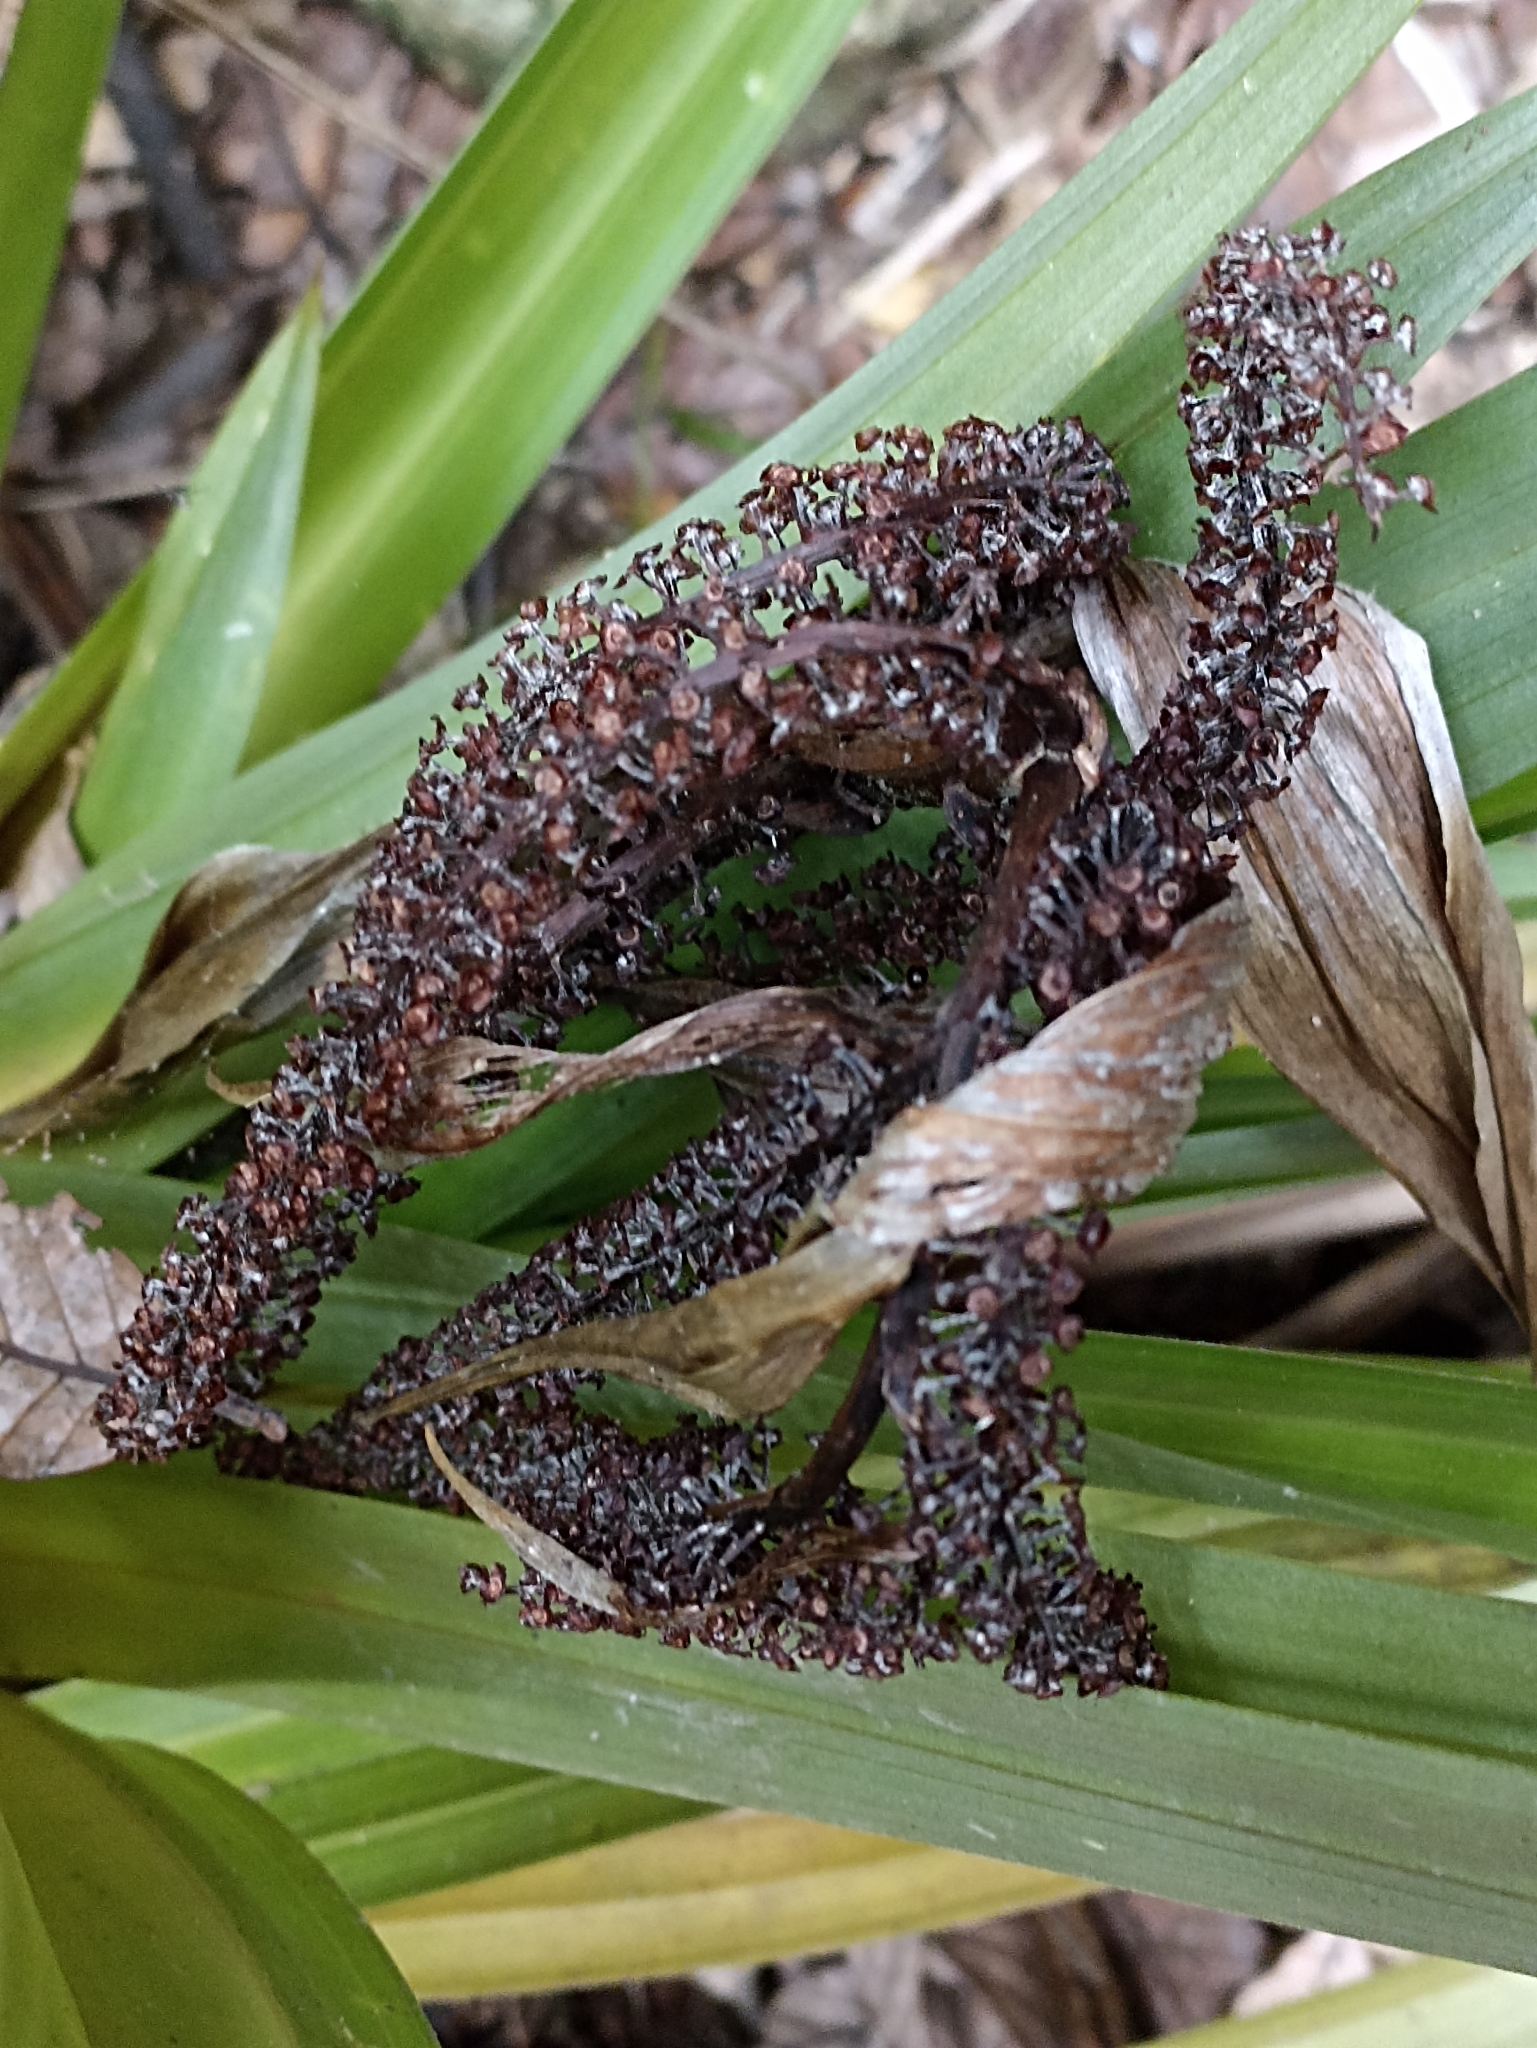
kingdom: Plantae
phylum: Tracheophyta
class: Liliopsida
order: Asparagales
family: Asteliaceae
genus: Astelia
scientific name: Astelia hastata
